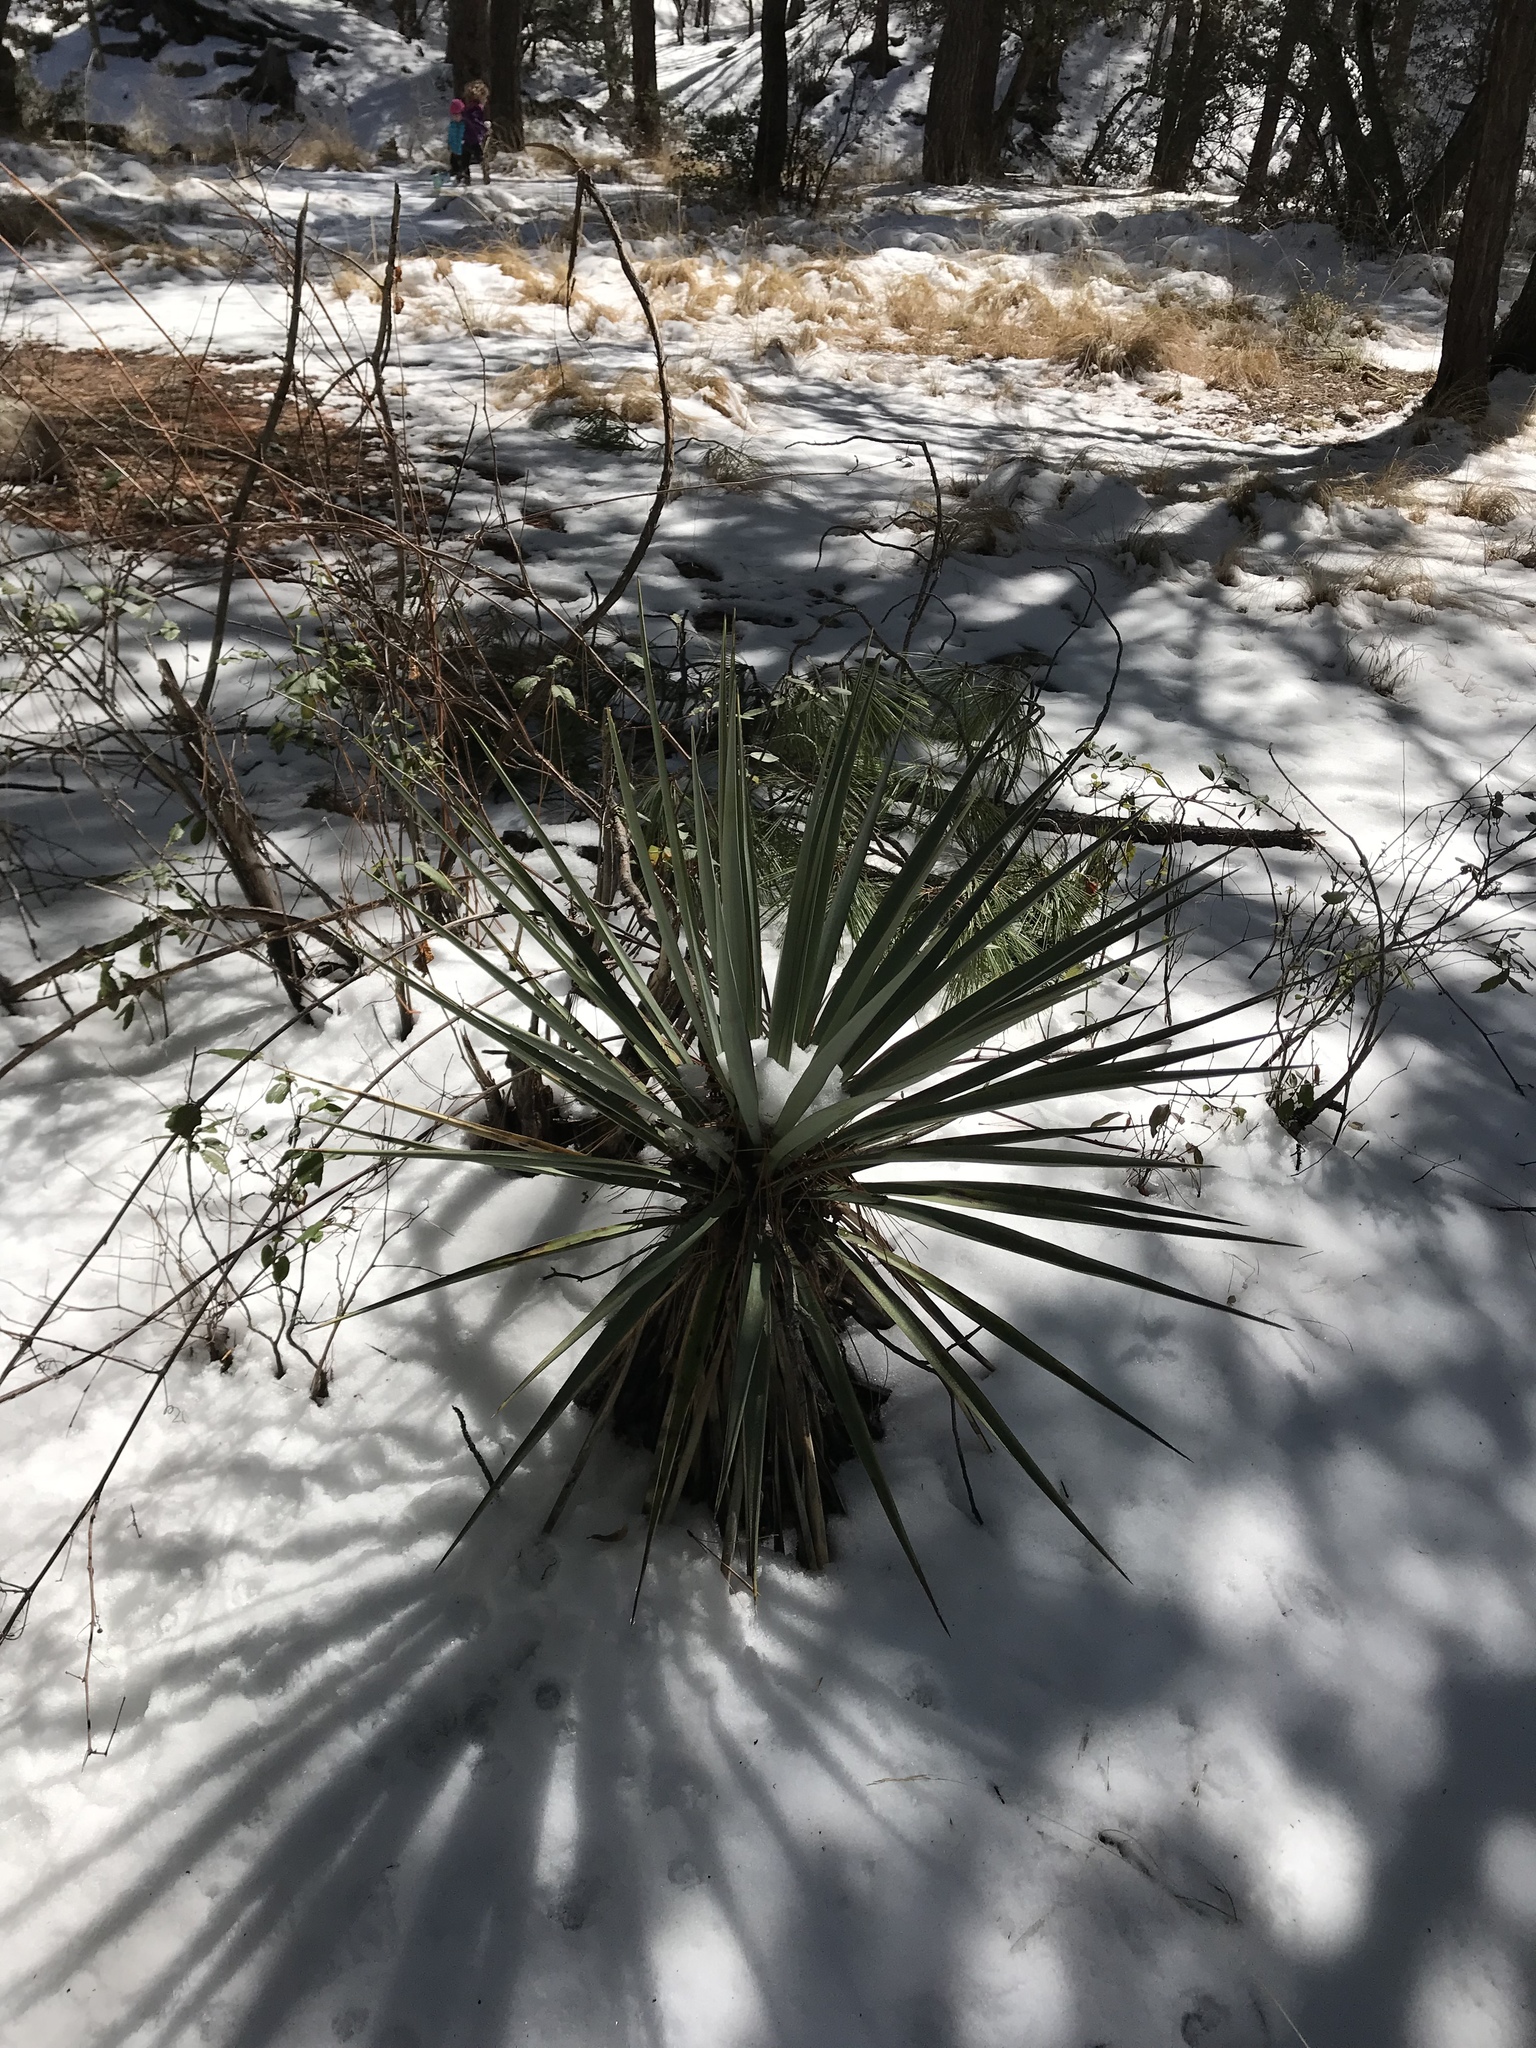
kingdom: Plantae
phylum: Tracheophyta
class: Liliopsida
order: Asparagales
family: Asparagaceae
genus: Yucca
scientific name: Yucca madrensis
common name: Hoary yucca
